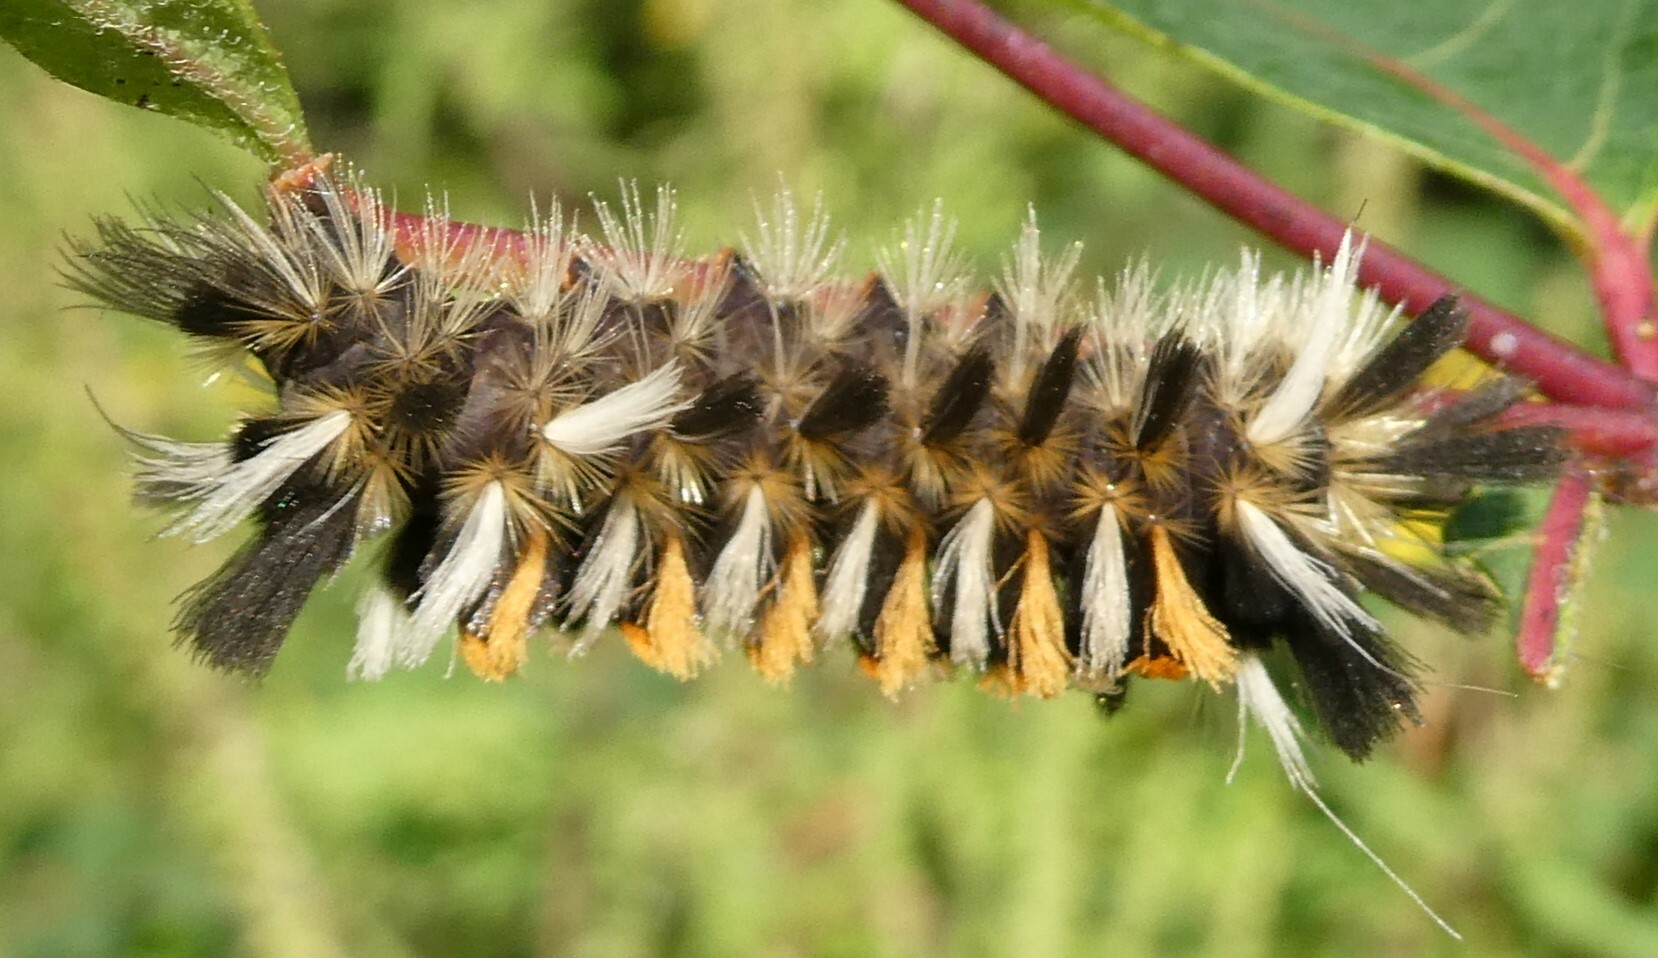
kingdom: Animalia
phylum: Arthropoda
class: Insecta
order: Lepidoptera
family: Erebidae
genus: Euchaetes
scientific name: Euchaetes egle
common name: Milkweed tussock moth
